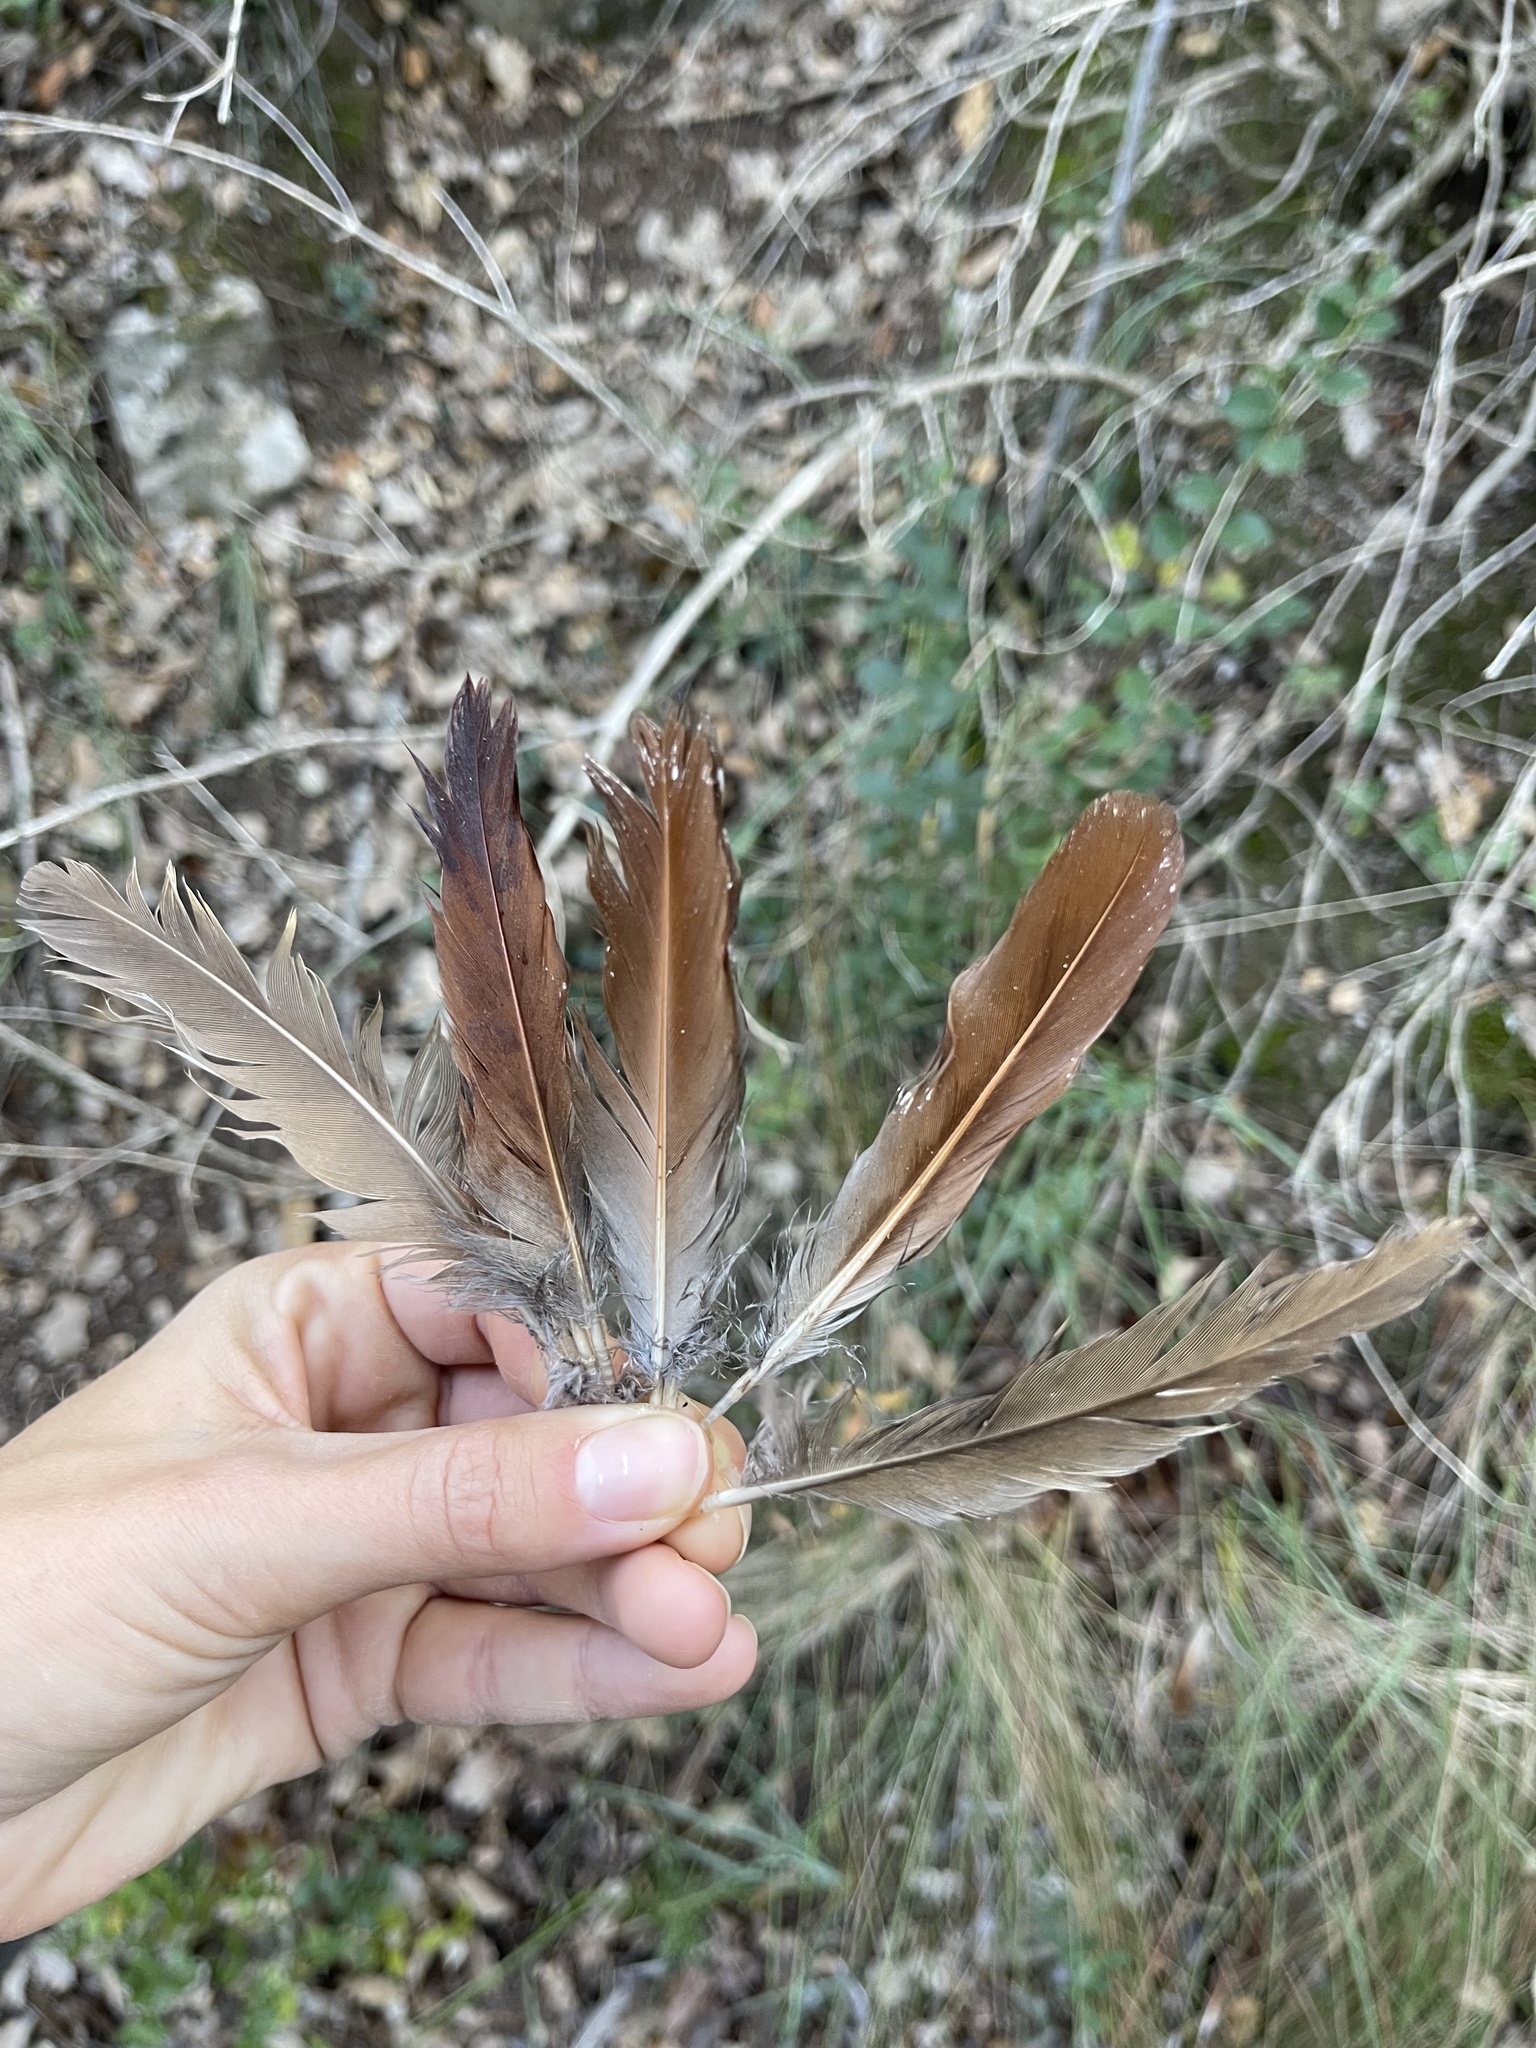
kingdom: Animalia
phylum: Chordata
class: Aves
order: Galliformes
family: Phasianidae
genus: Alectoris
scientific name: Alectoris rufa
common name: Red-legged partridge
